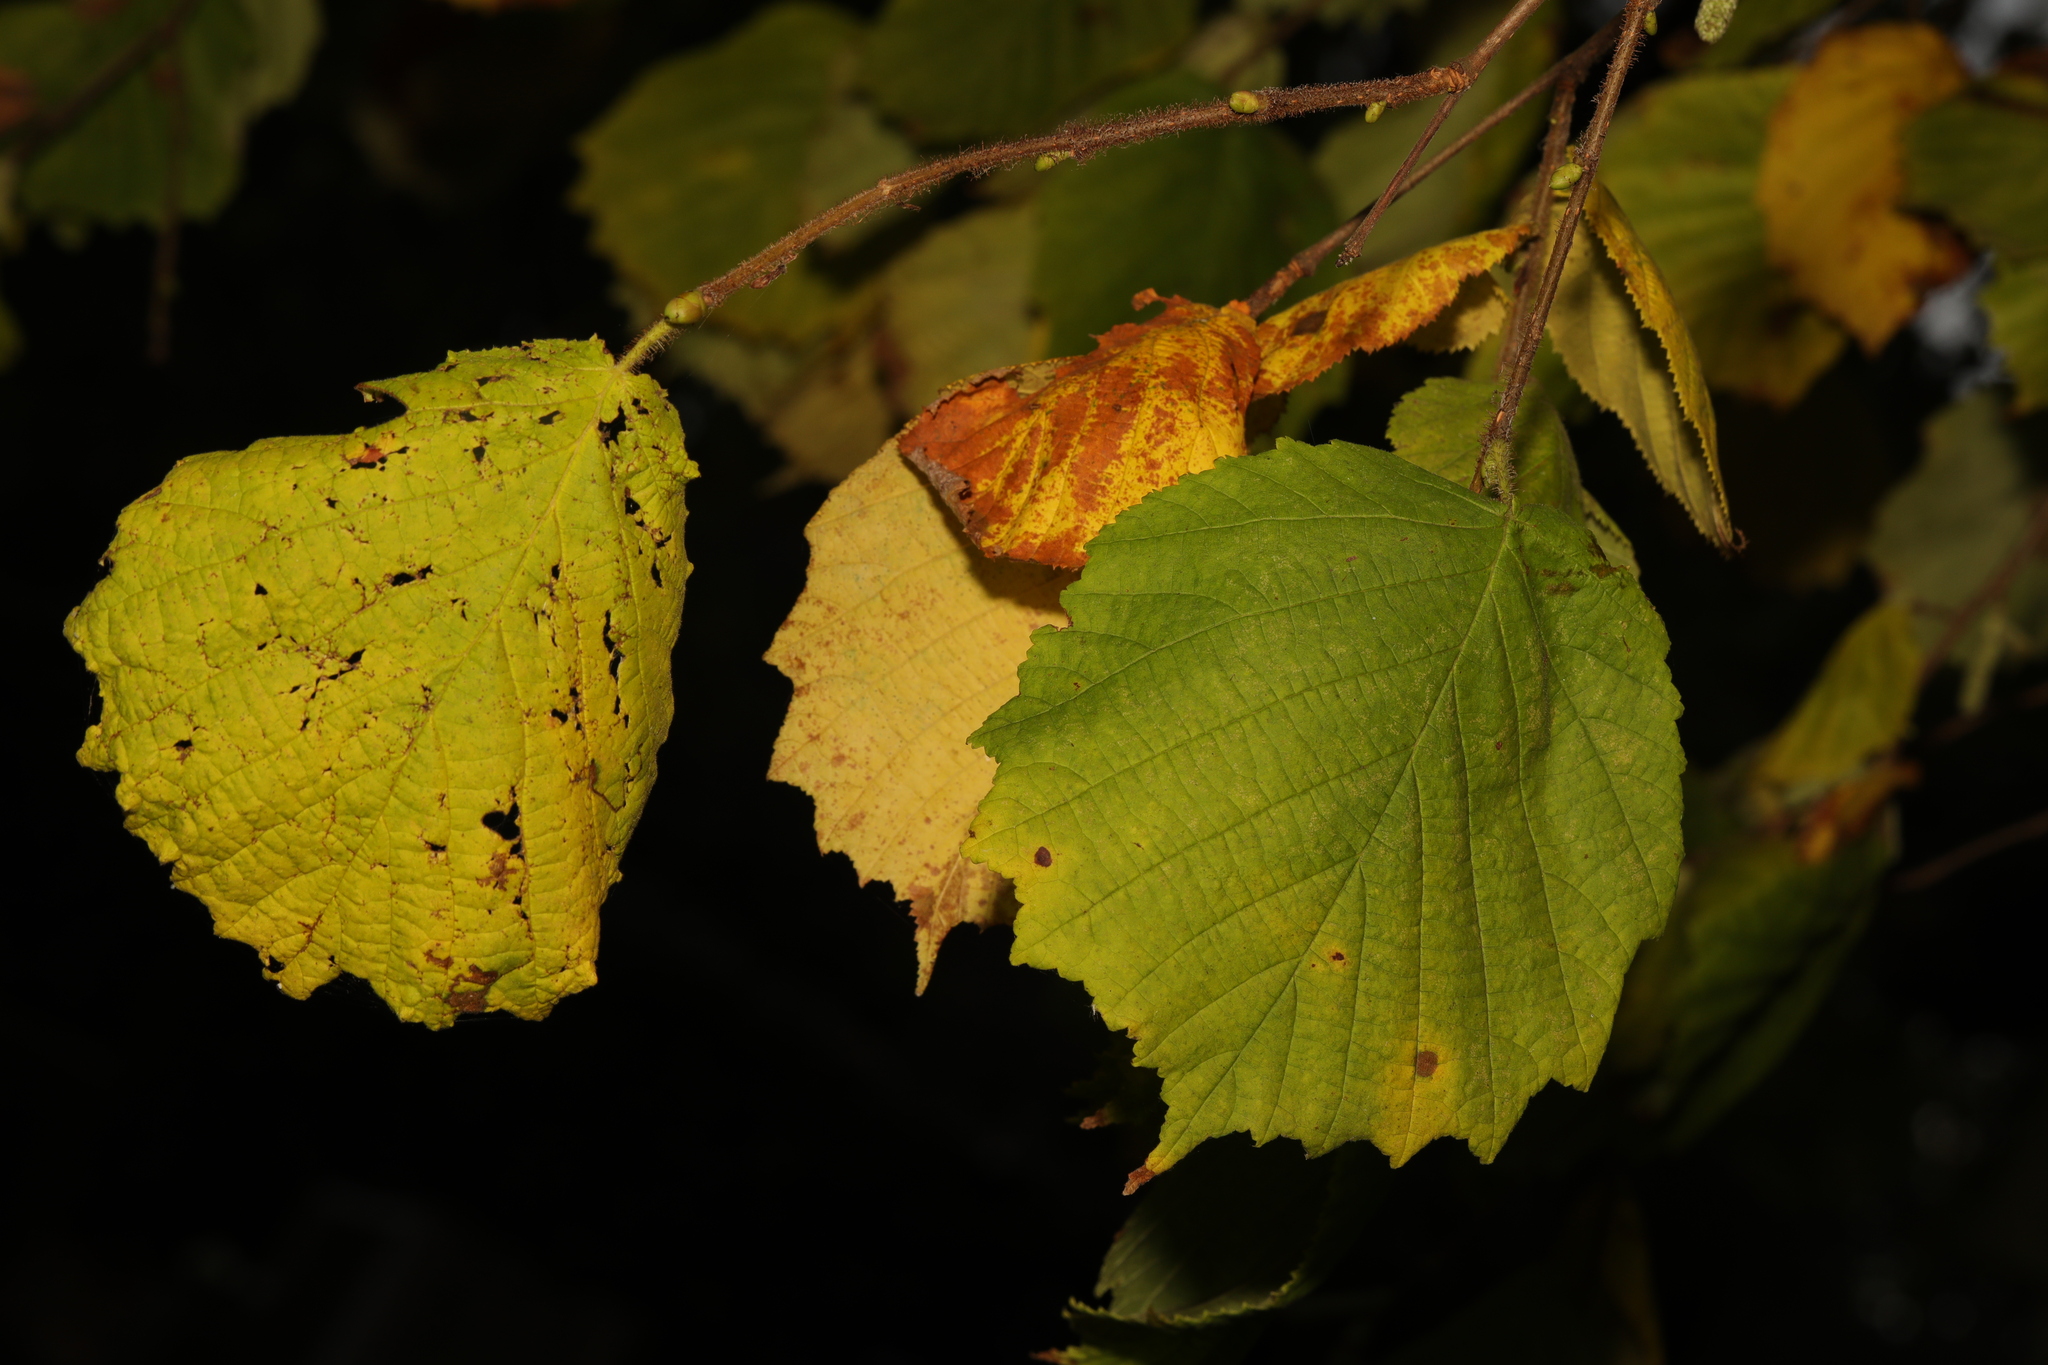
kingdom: Plantae
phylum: Tracheophyta
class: Magnoliopsida
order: Fagales
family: Betulaceae
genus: Corylus
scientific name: Corylus avellana
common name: European hazel
